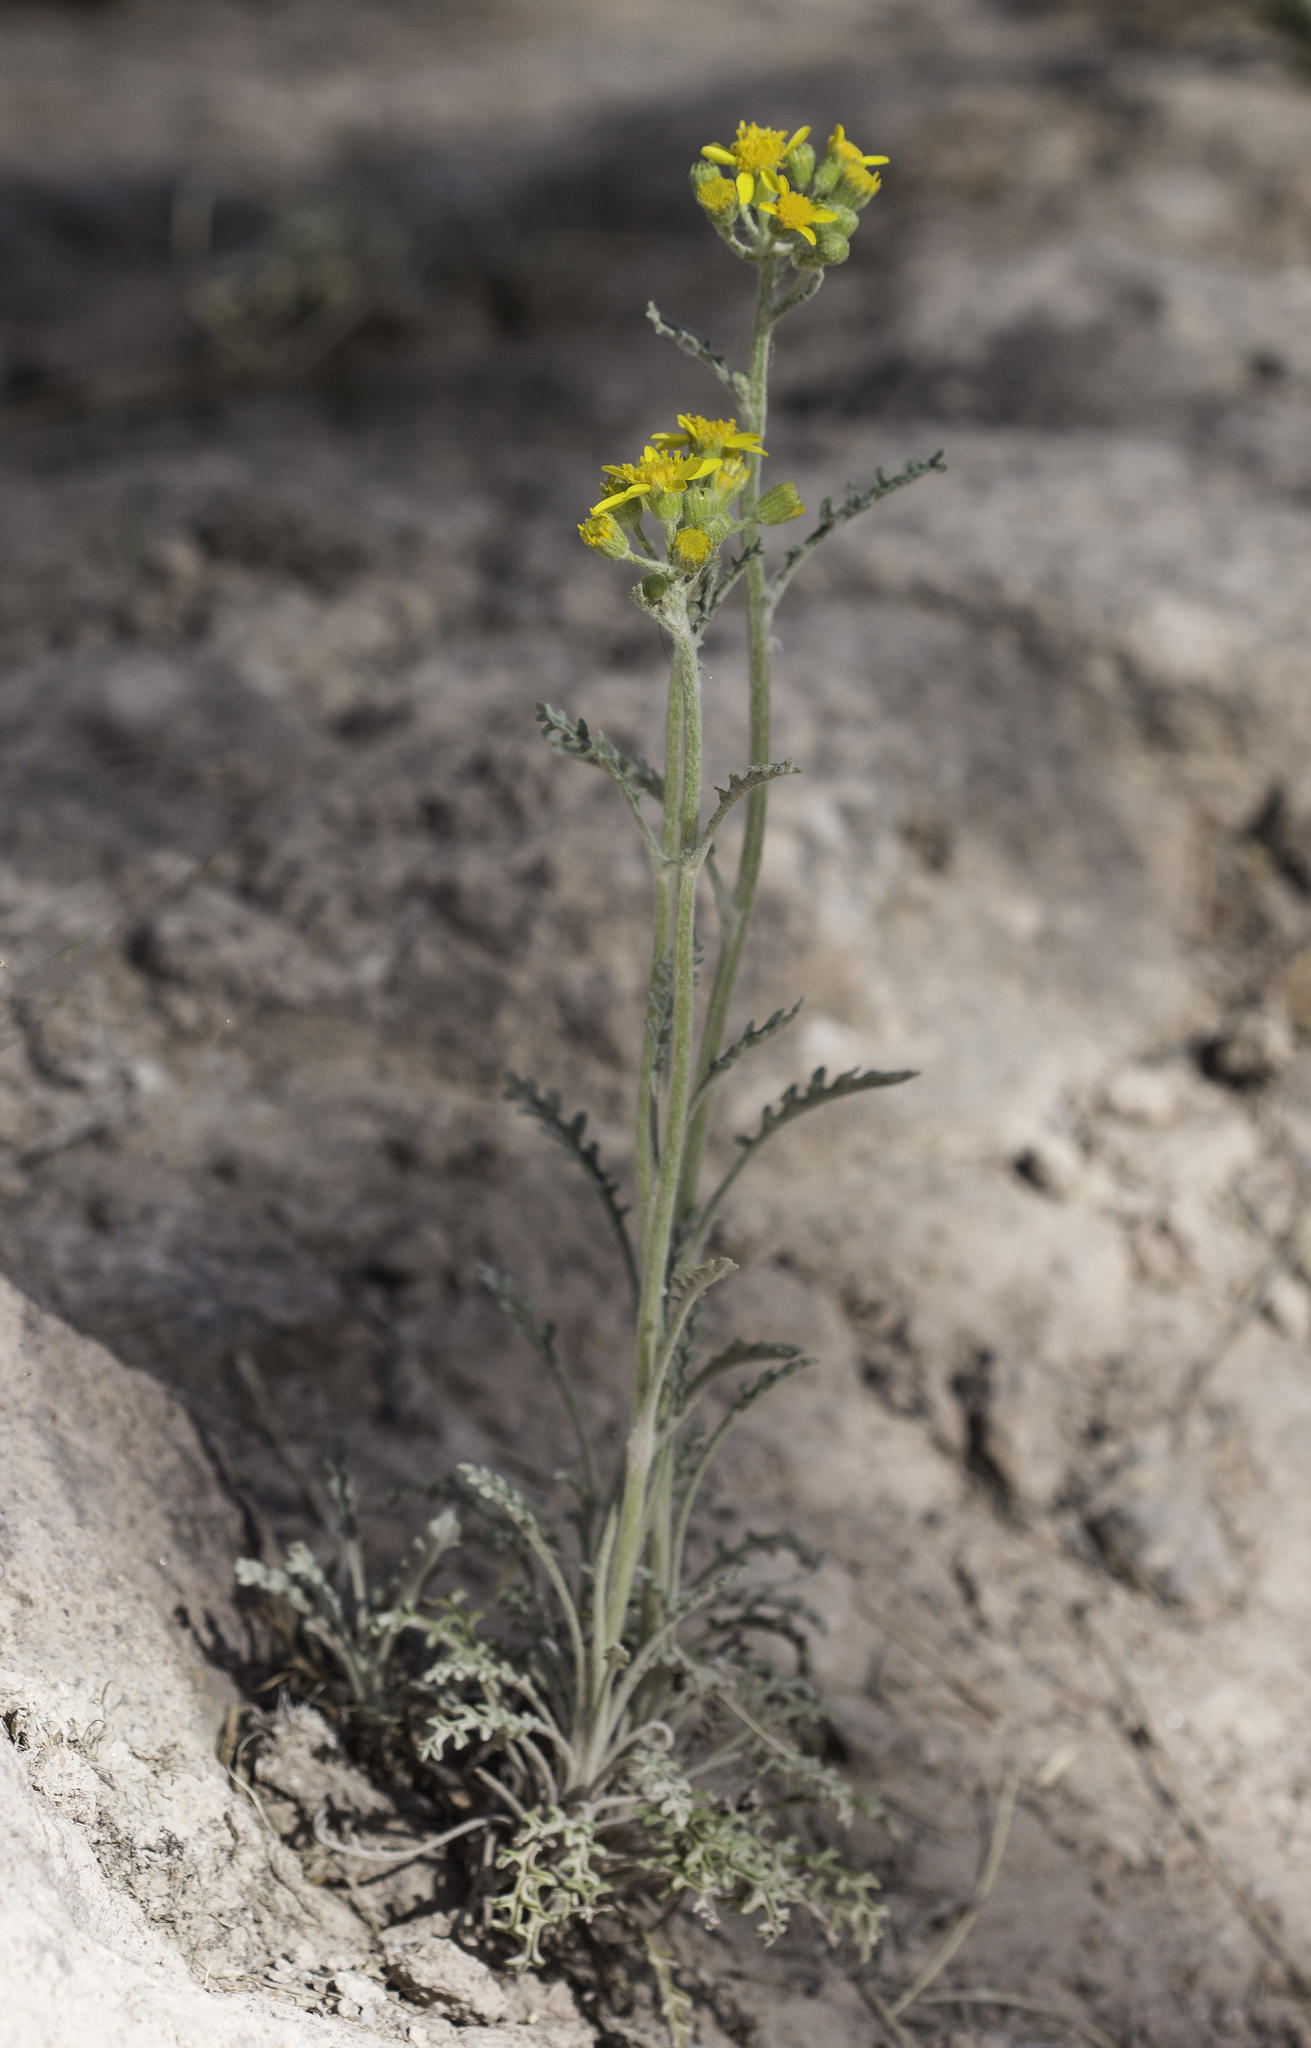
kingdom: Plantae
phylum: Tracheophyta
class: Magnoliopsida
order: Asterales
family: Asteraceae
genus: Packera
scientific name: Packera fendleri
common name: Notch-leaf butterweed
